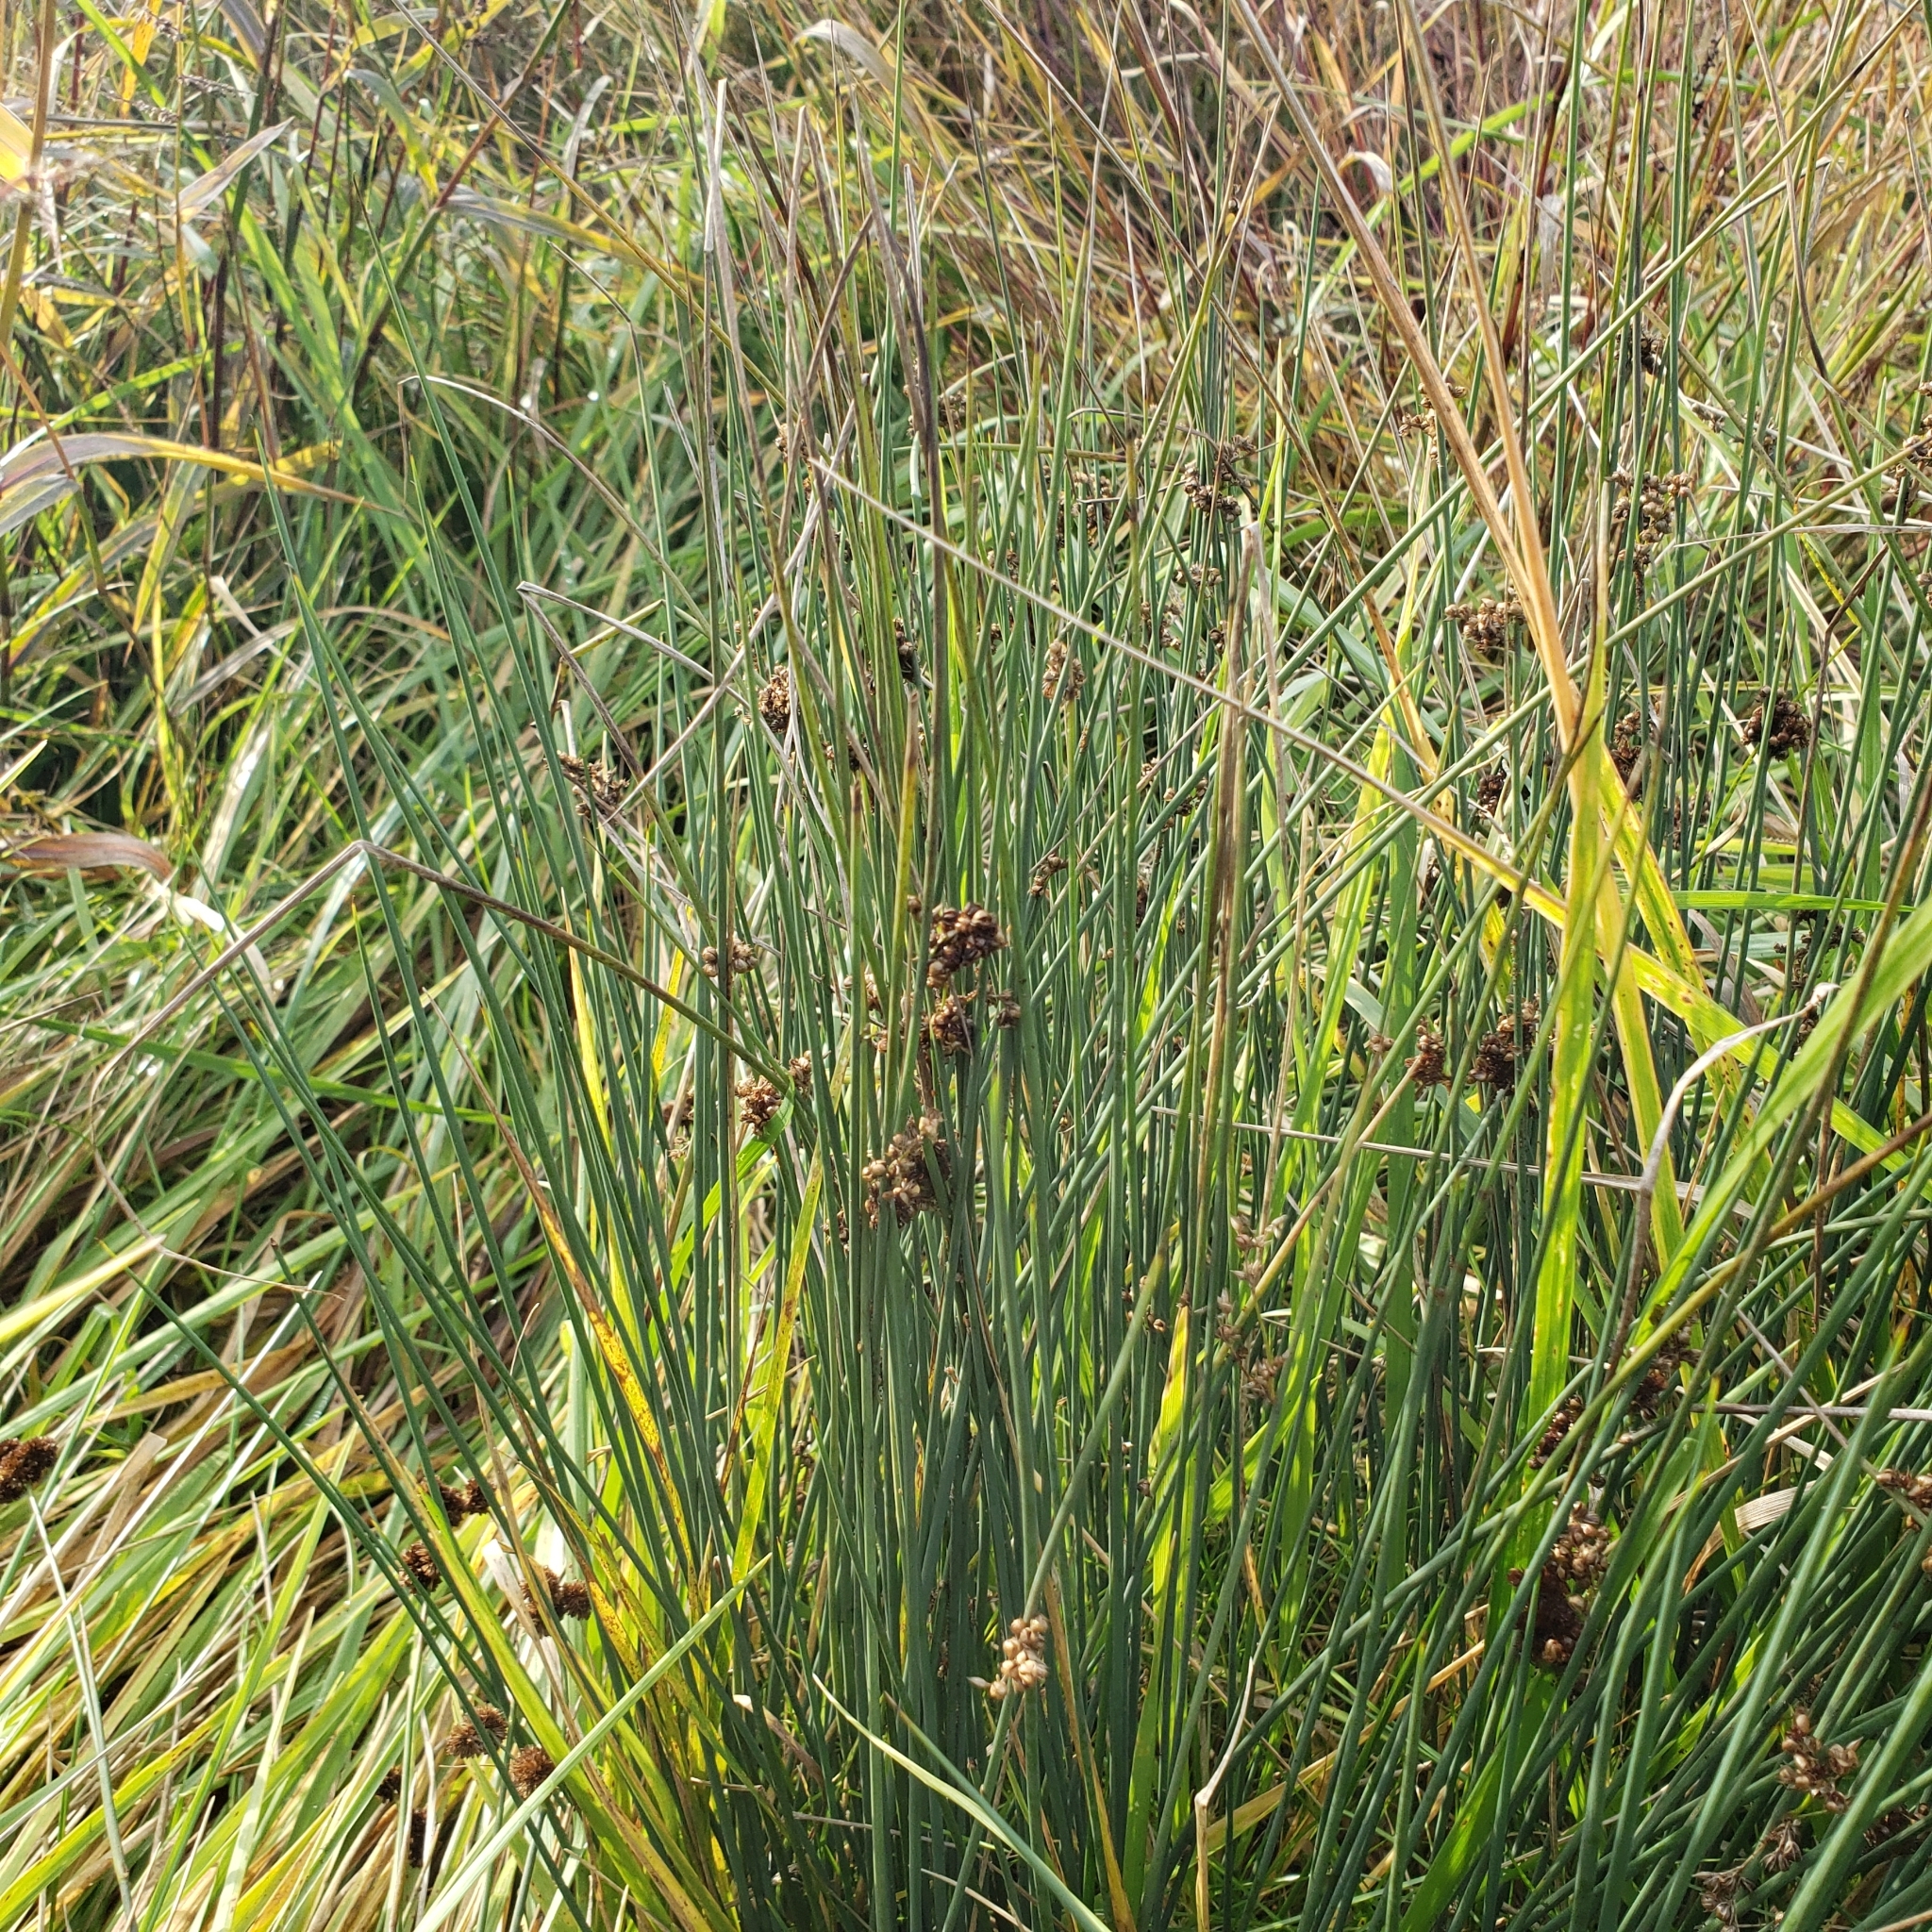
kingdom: Plantae
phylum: Tracheophyta
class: Liliopsida
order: Poales
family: Juncaceae
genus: Juncus
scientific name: Juncus patens
